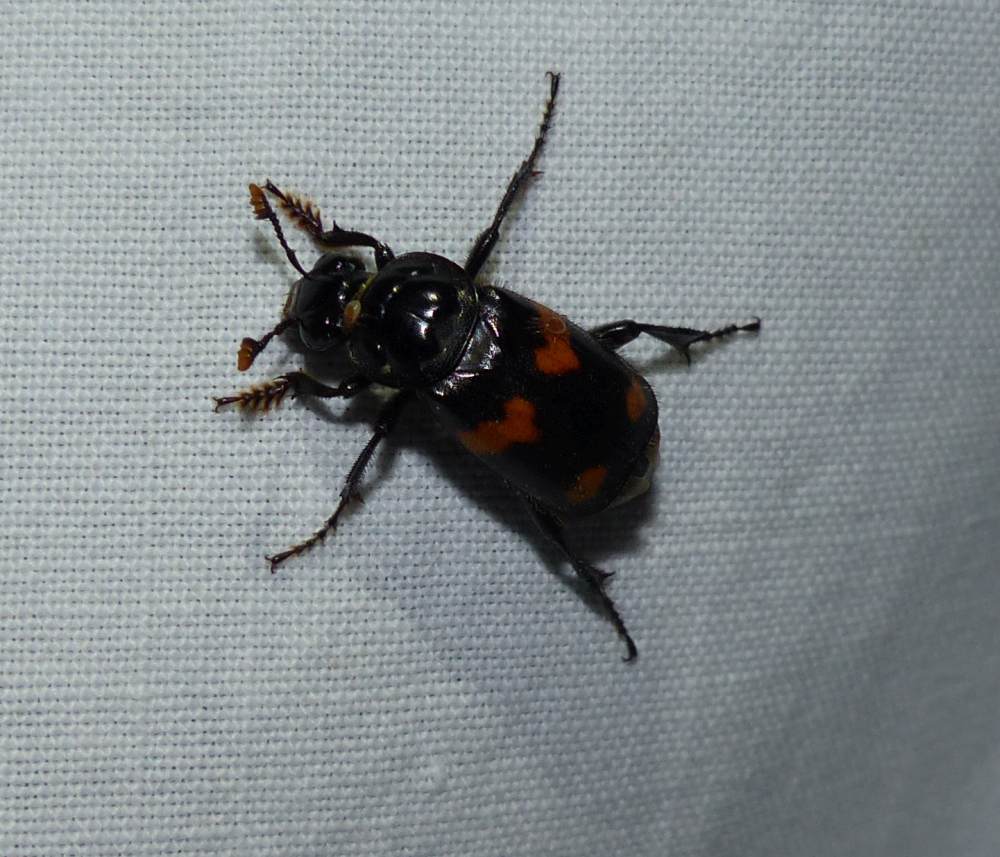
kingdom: Animalia
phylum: Arthropoda
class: Insecta
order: Coleoptera
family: Staphylinidae
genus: Nicrophorus
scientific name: Nicrophorus orbicollis
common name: Roundneck sexton beetle
